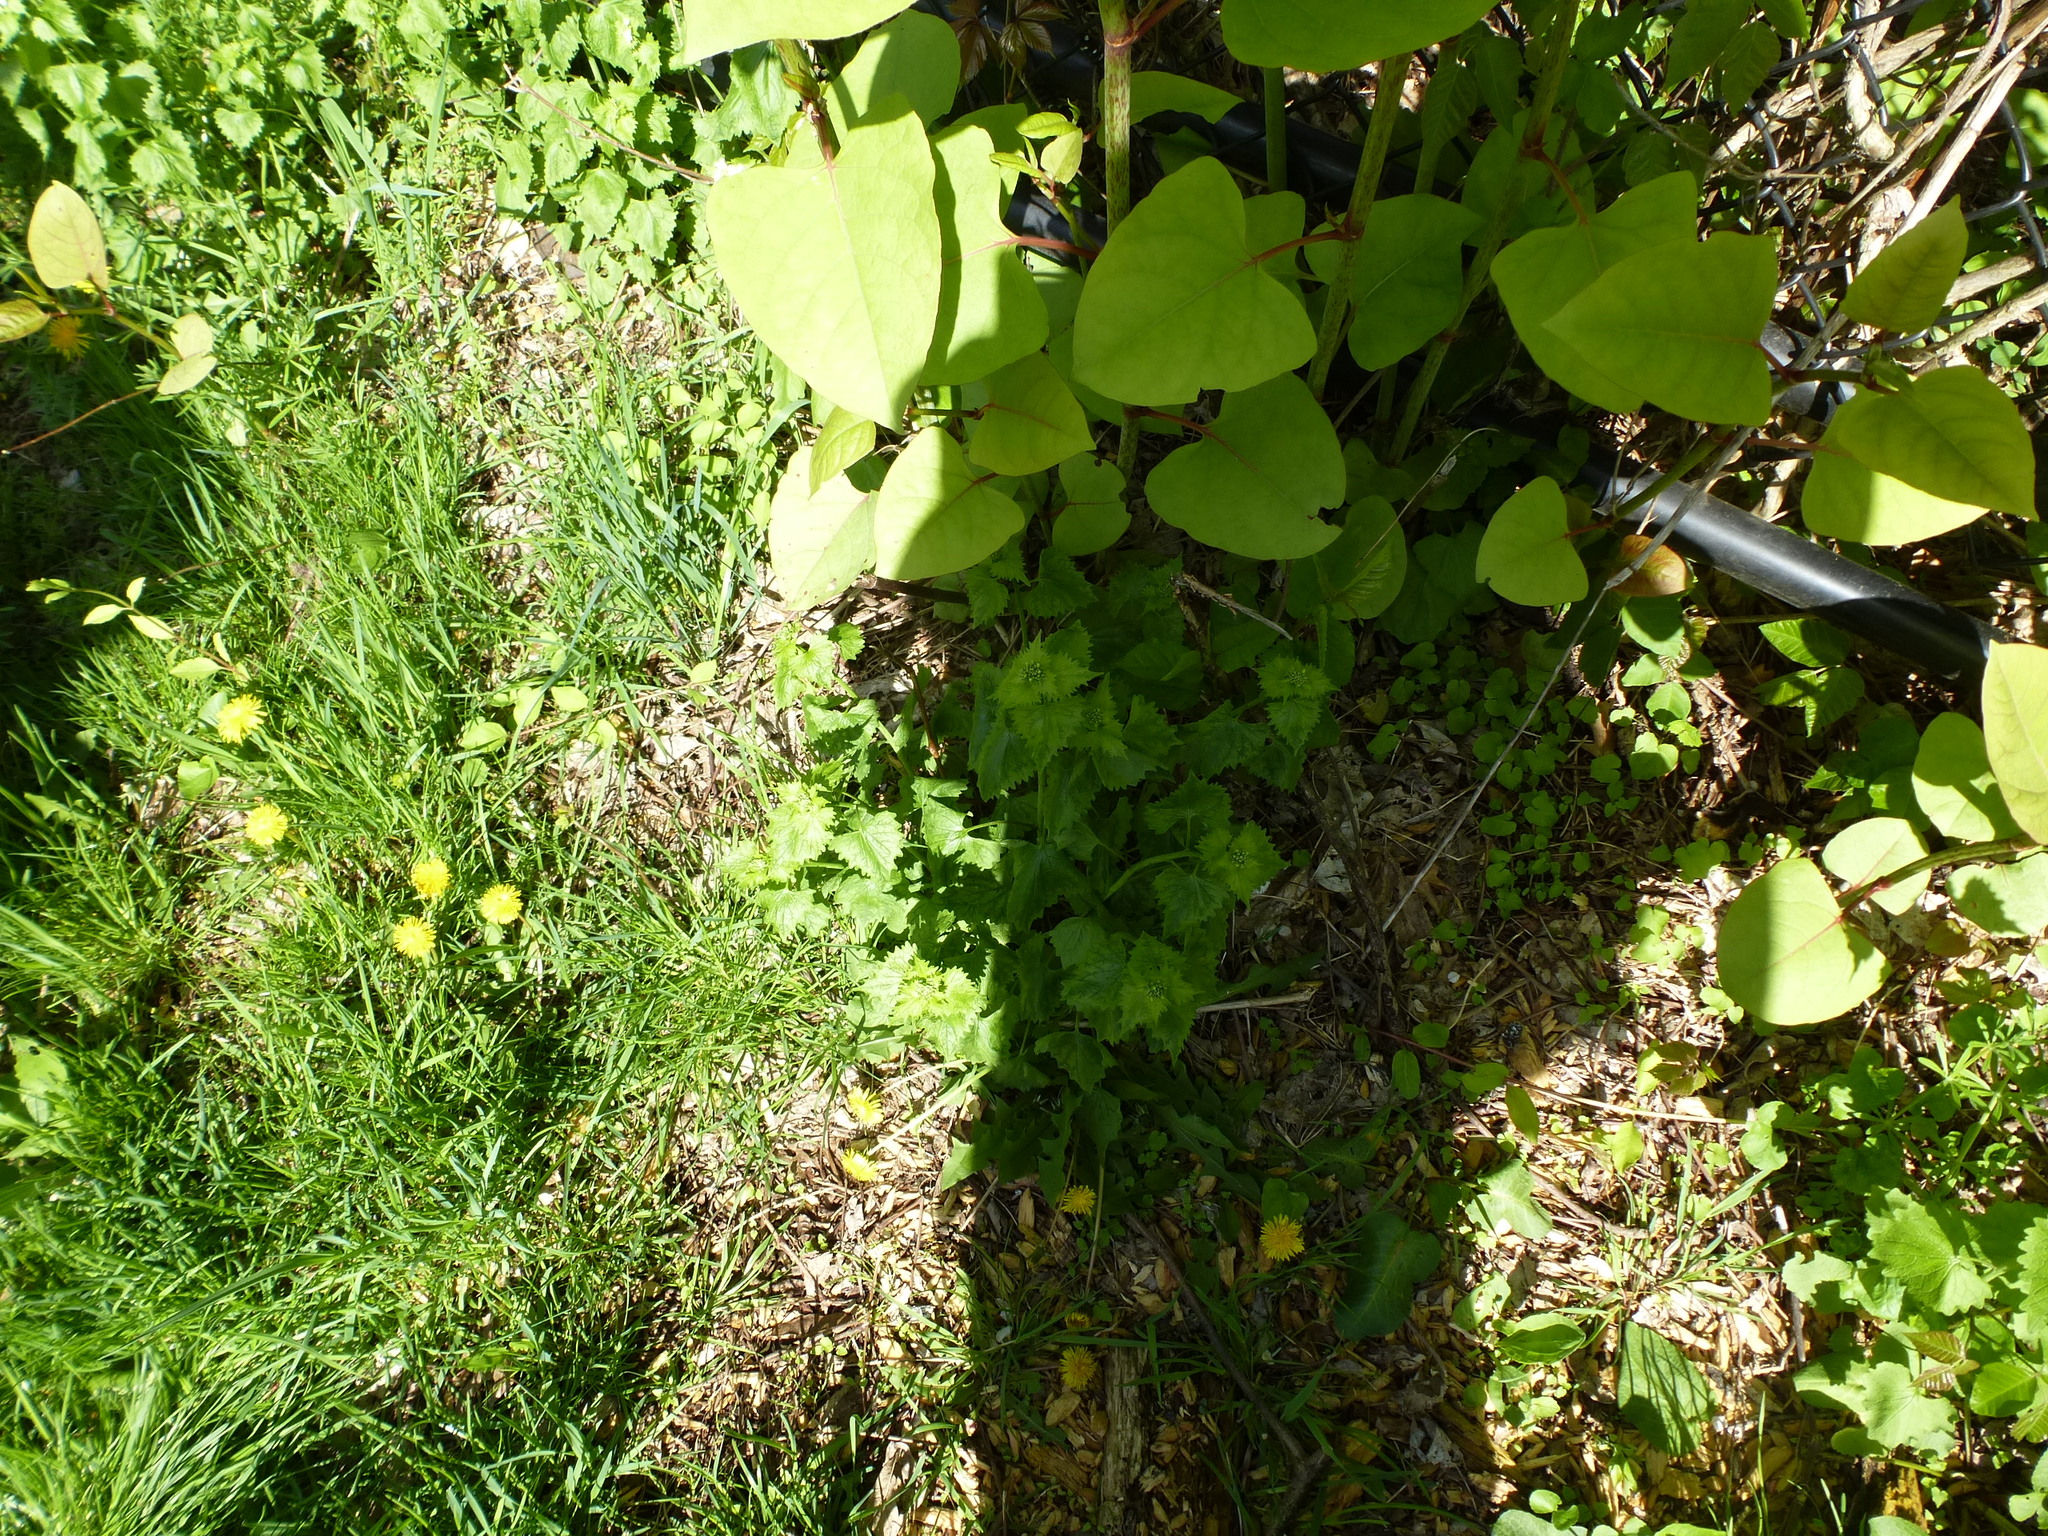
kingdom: Plantae
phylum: Tracheophyta
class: Magnoliopsida
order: Caryophyllales
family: Polygonaceae
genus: Reynoutria
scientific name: Reynoutria japonica
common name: Japanese knotweed
